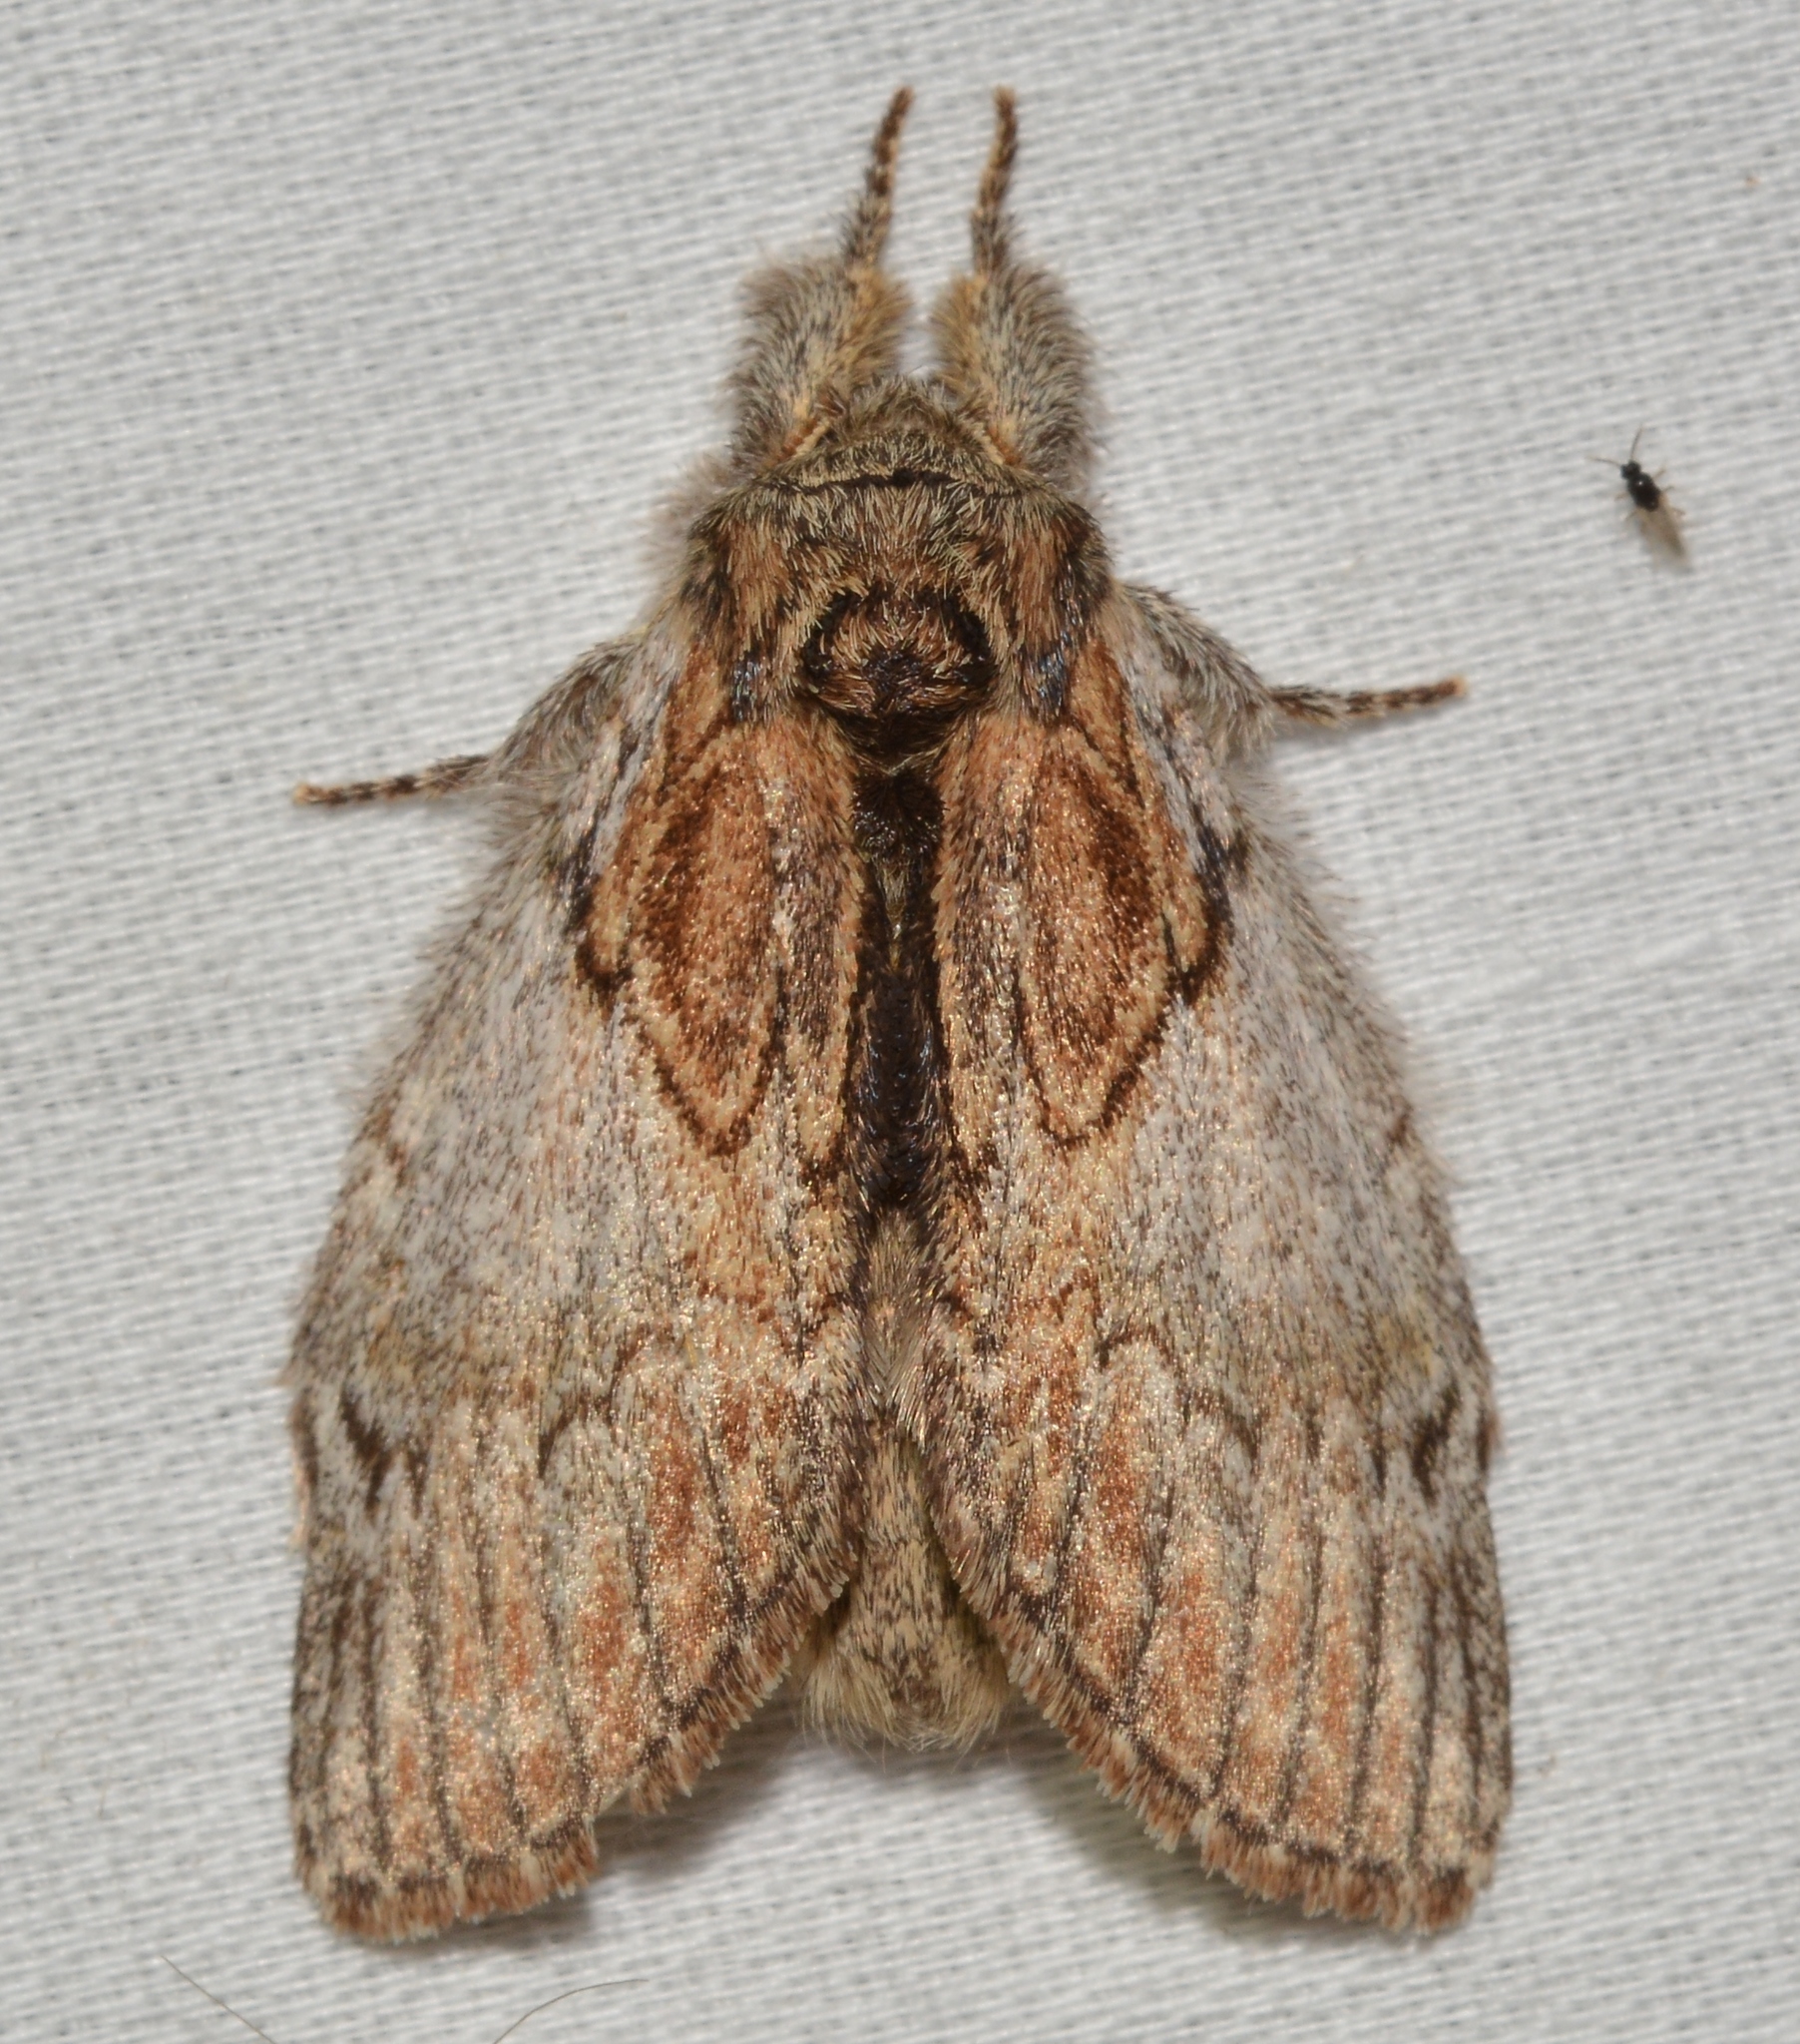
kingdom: Animalia
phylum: Arthropoda
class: Insecta
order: Lepidoptera
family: Notodontidae
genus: Peridea
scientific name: Peridea basitriens
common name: Oval-based prominent
